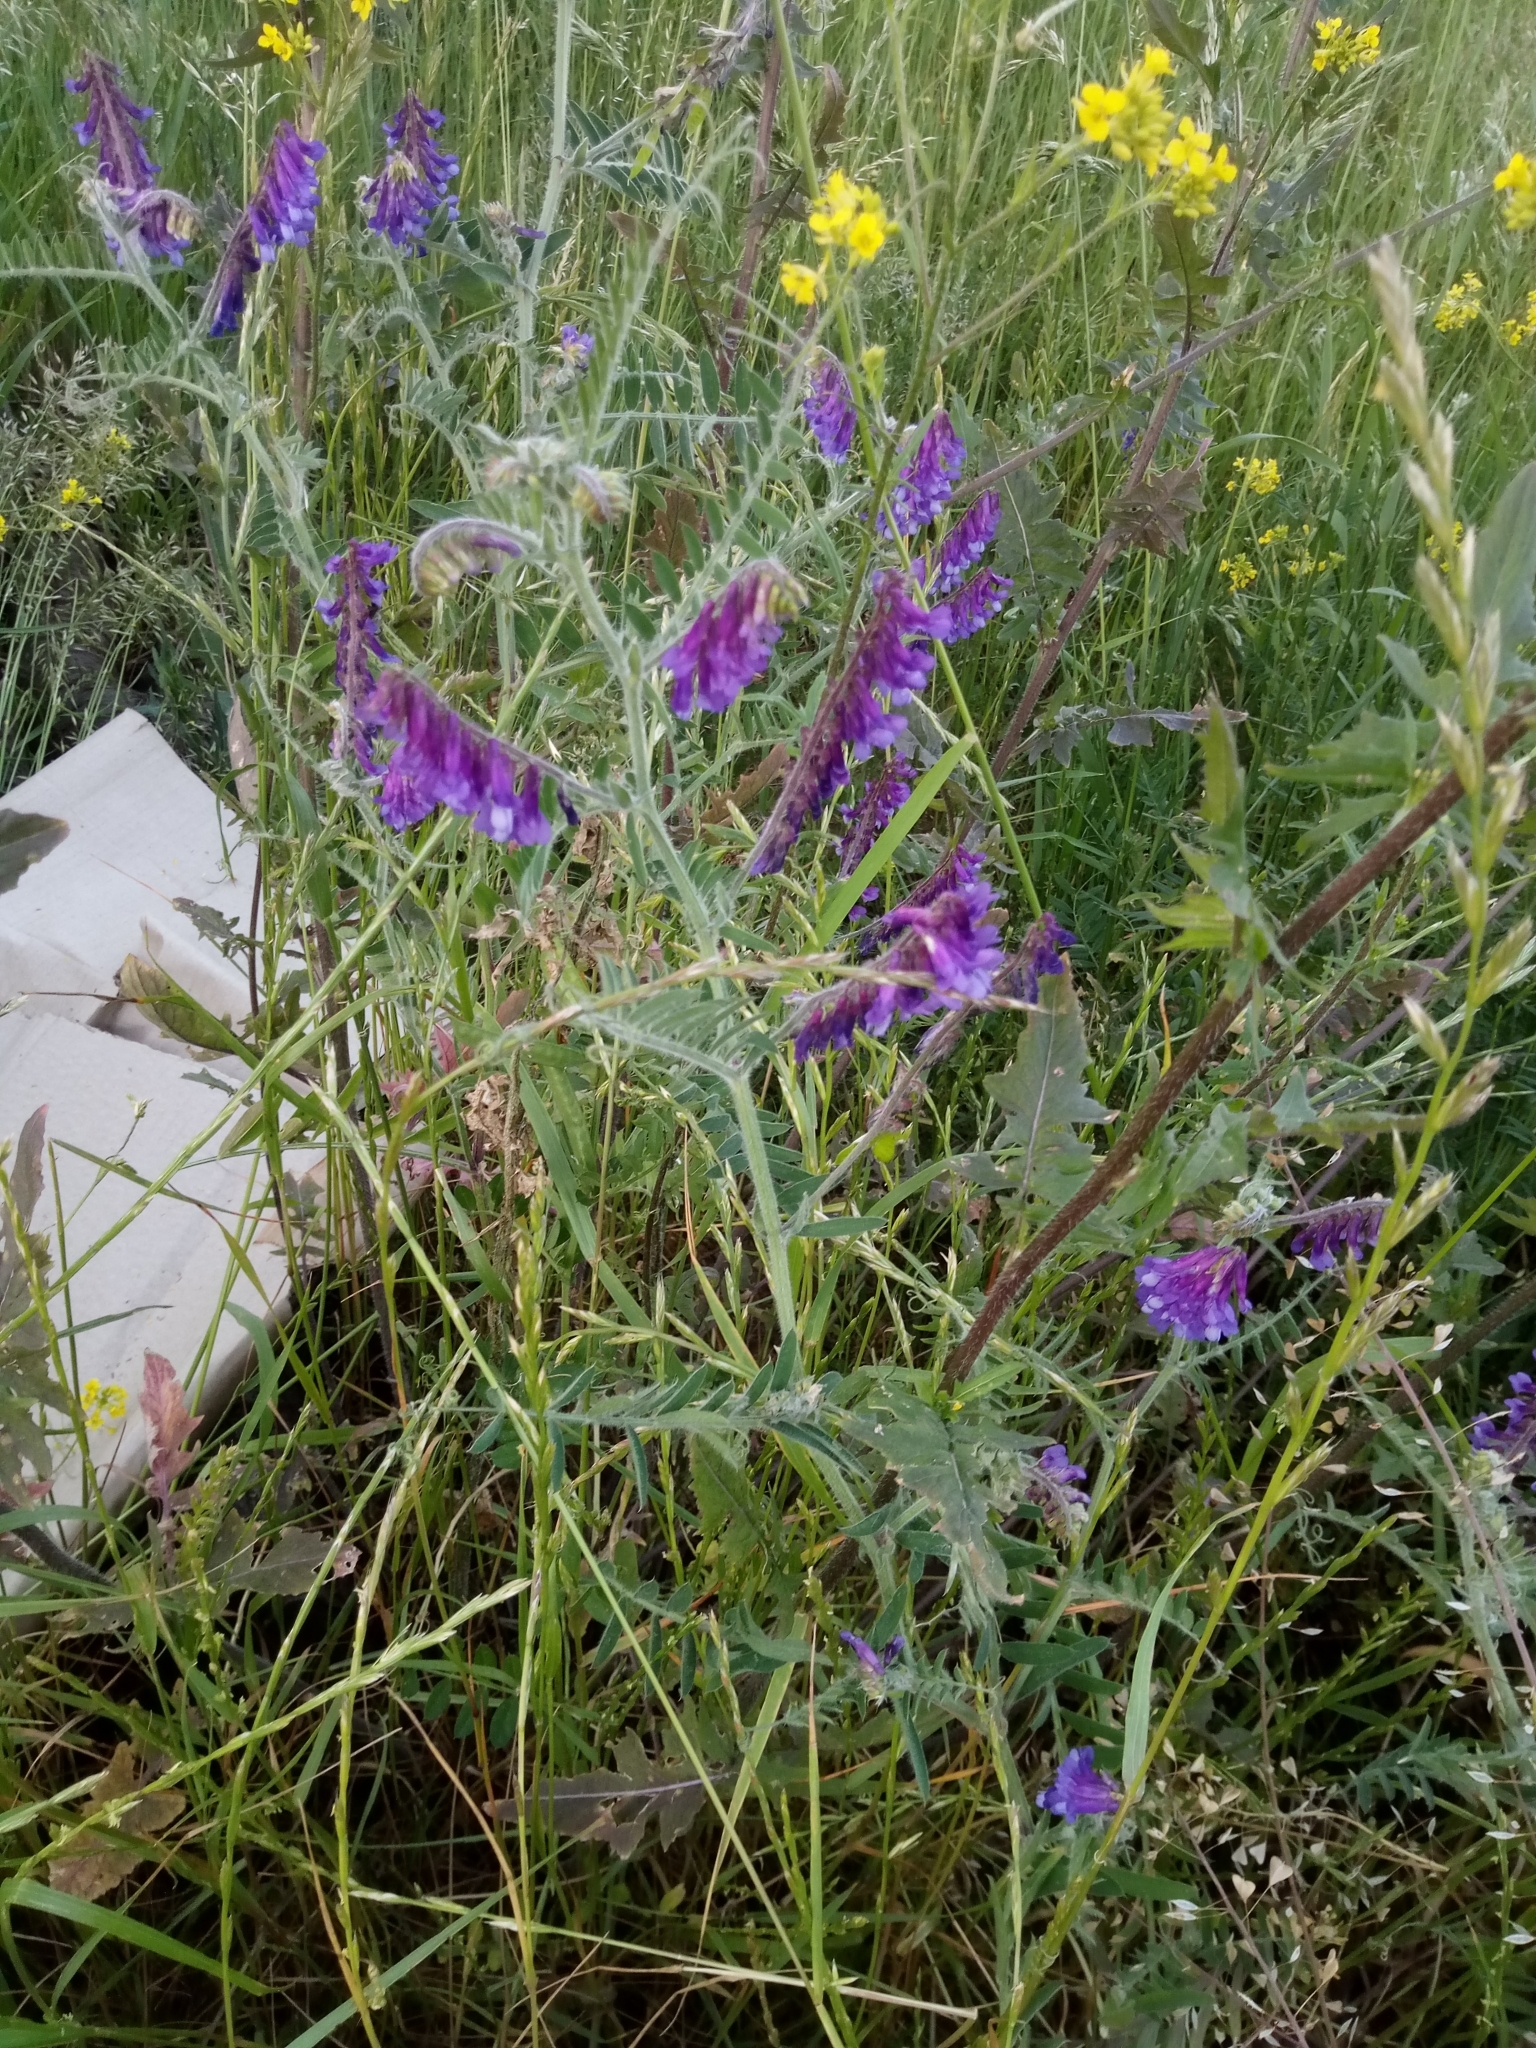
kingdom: Plantae
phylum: Tracheophyta
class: Magnoliopsida
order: Fabales
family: Fabaceae
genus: Vicia
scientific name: Vicia villosa
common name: Fodder vetch
